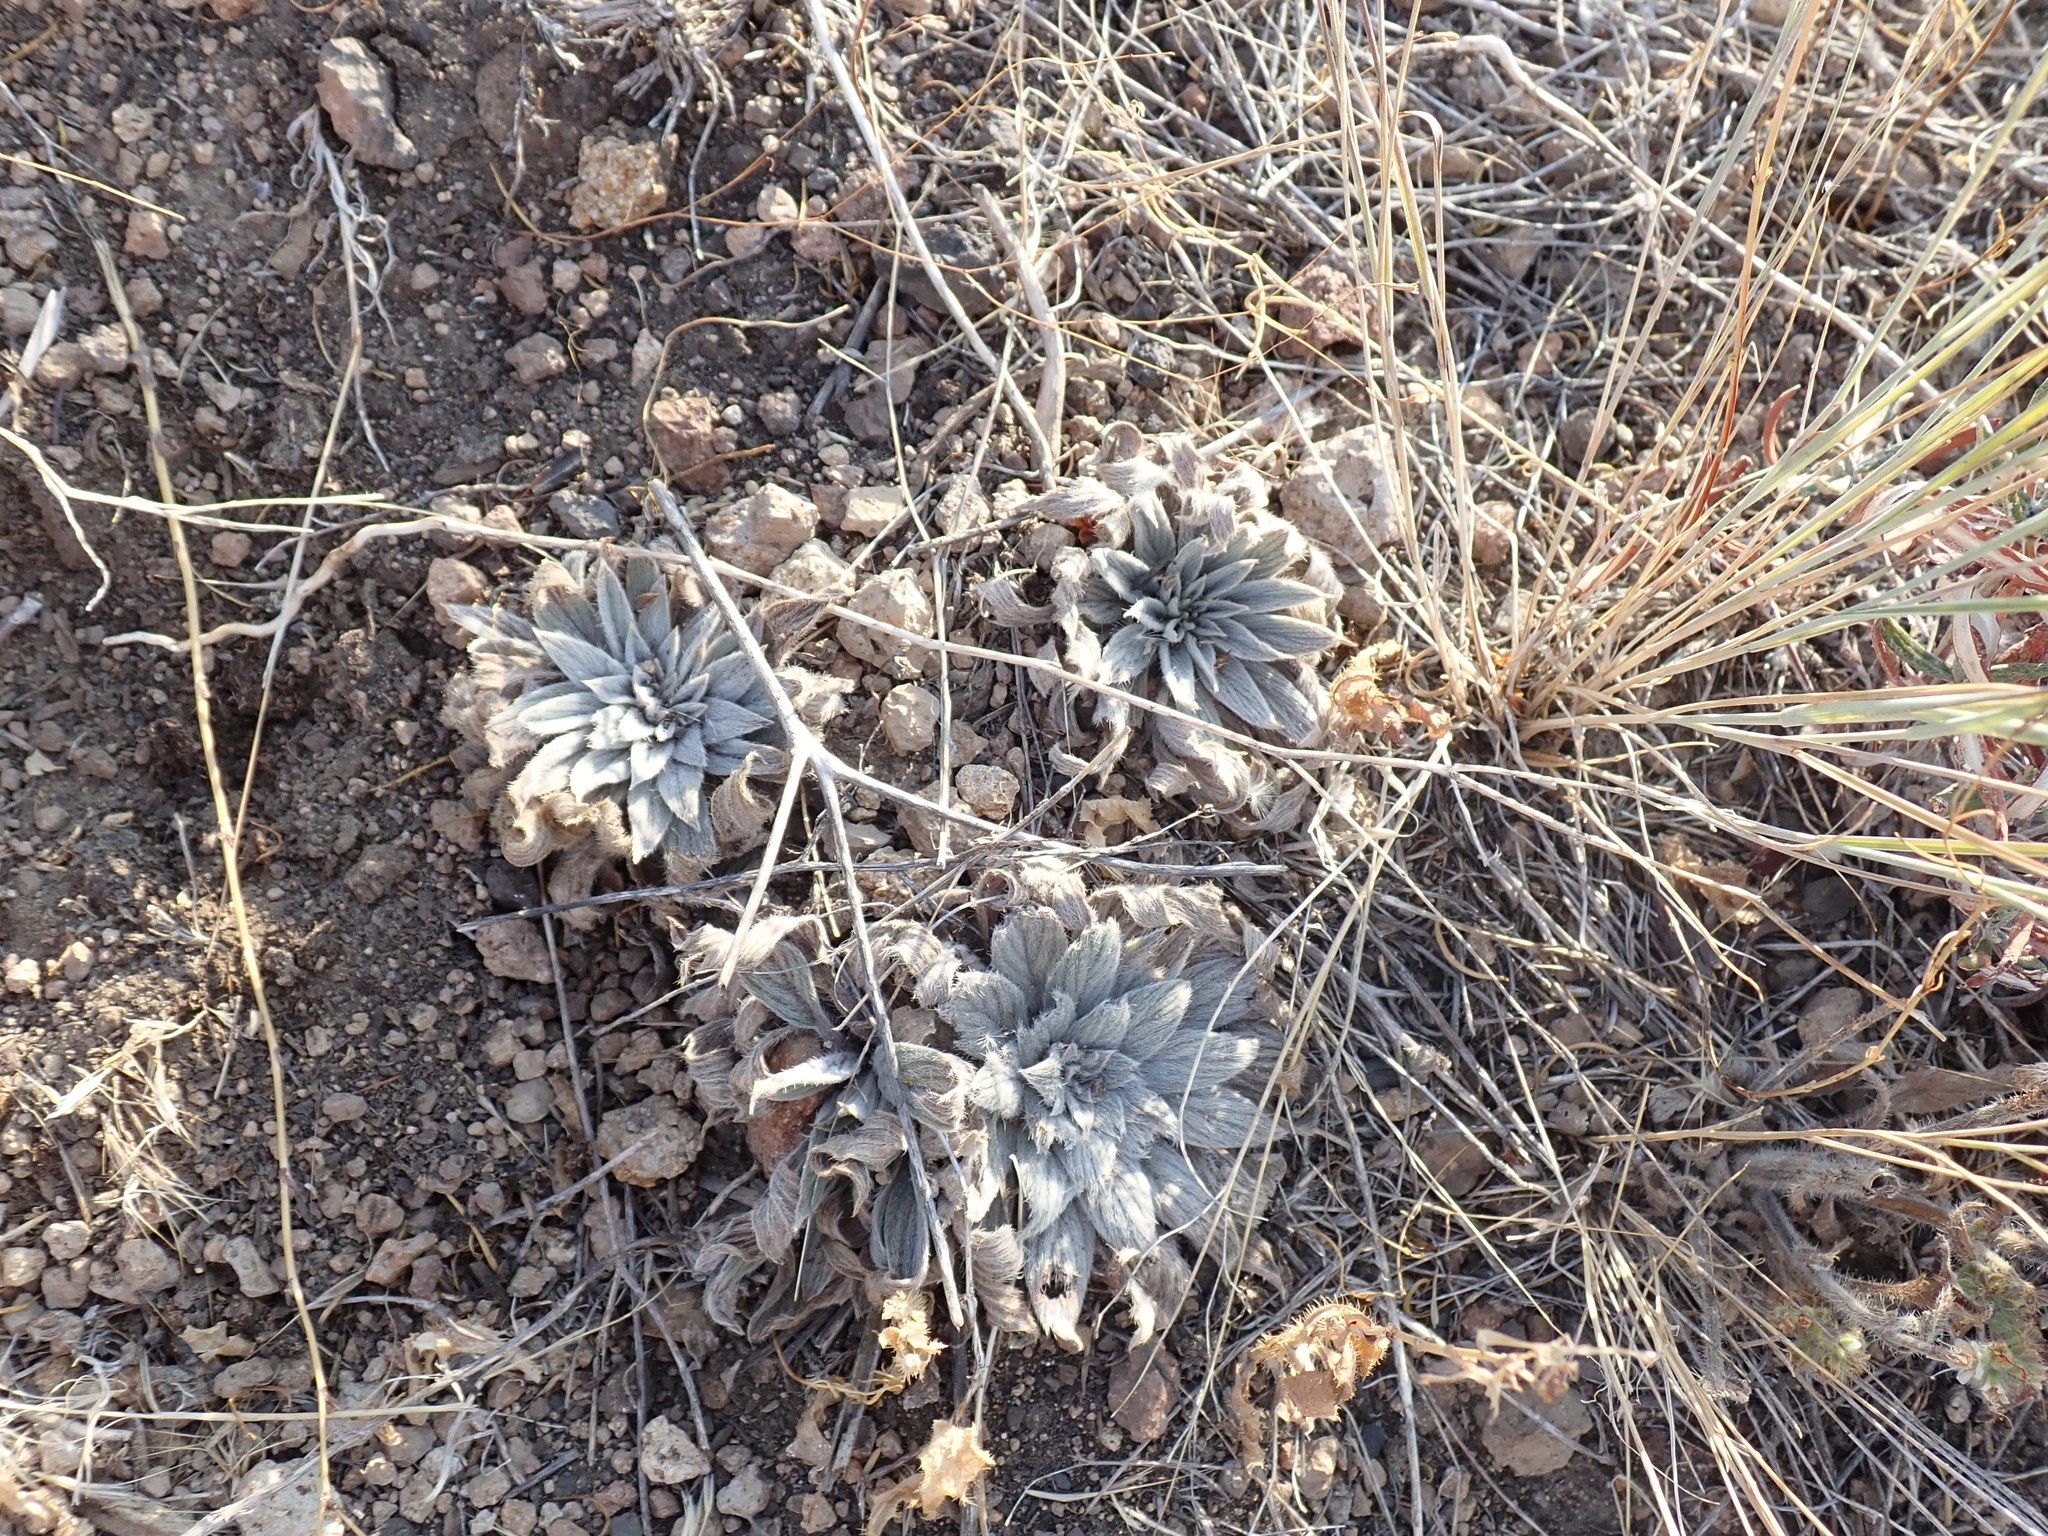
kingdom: Plantae
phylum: Tracheophyta
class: Magnoliopsida
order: Boraginales
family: Hydrophyllaceae
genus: Phacelia
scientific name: Phacelia hastata
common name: Silver-leaved phacelia
